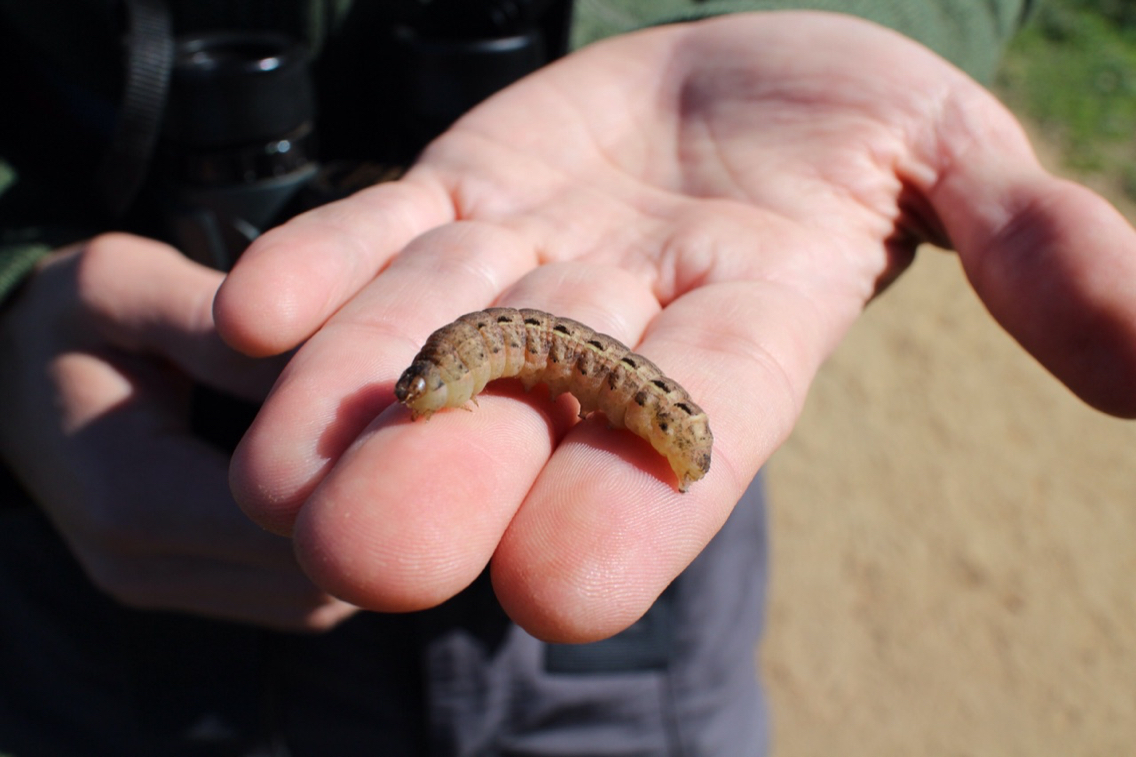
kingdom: Animalia
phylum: Arthropoda
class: Insecta
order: Lepidoptera
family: Noctuidae
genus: Noctua
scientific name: Noctua pronuba
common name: Large yellow underwing
